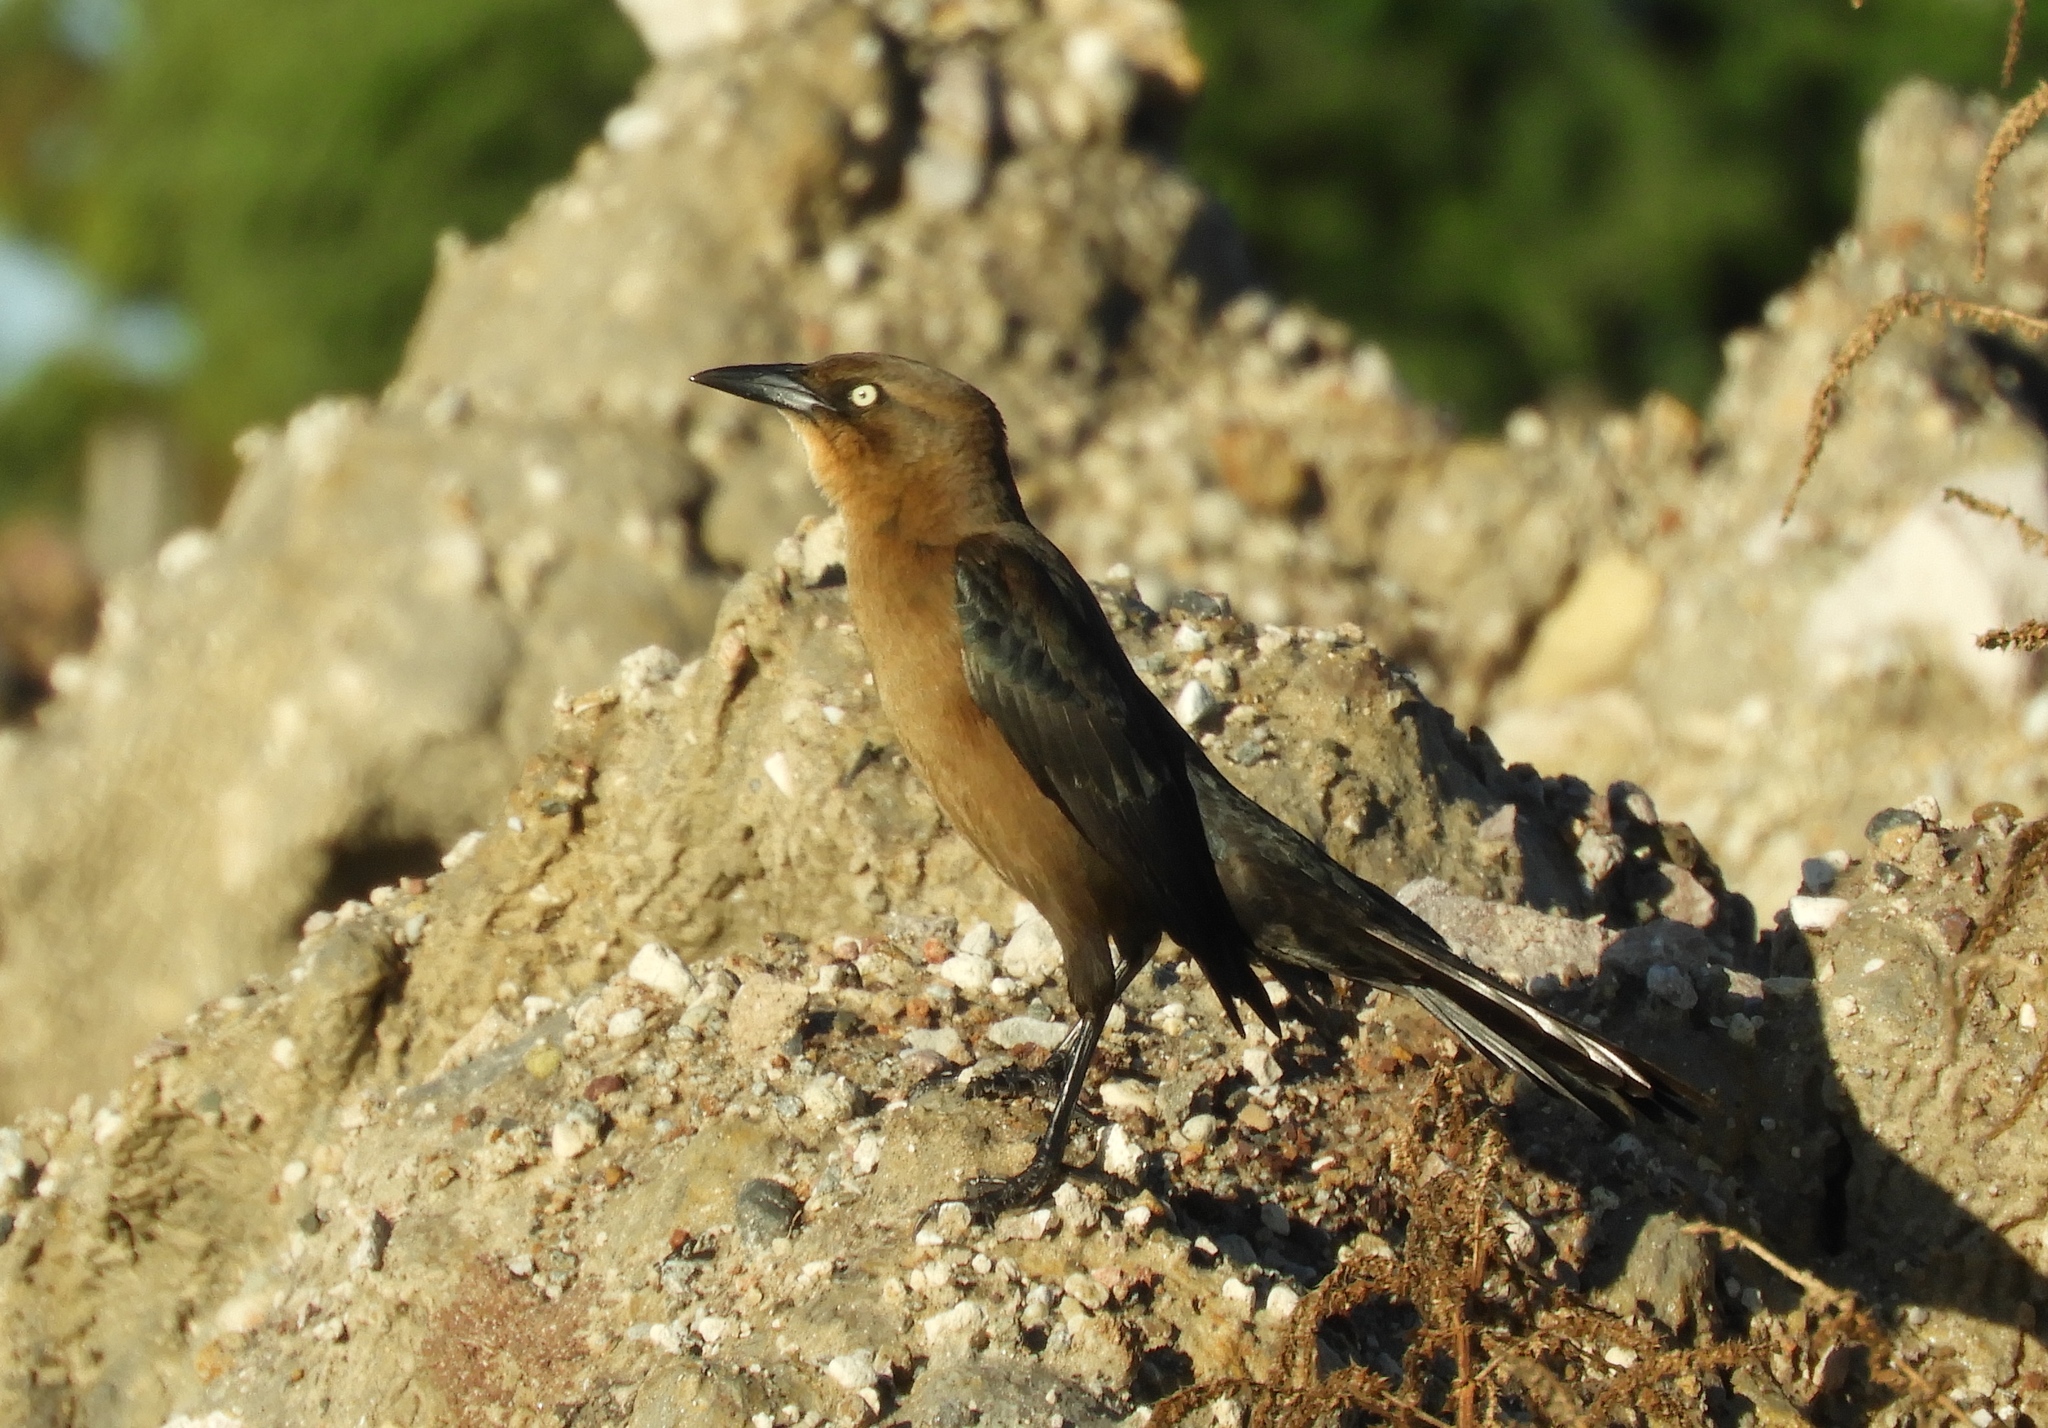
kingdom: Animalia
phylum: Chordata
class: Aves
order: Passeriformes
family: Icteridae
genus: Quiscalus
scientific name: Quiscalus mexicanus
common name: Great-tailed grackle
